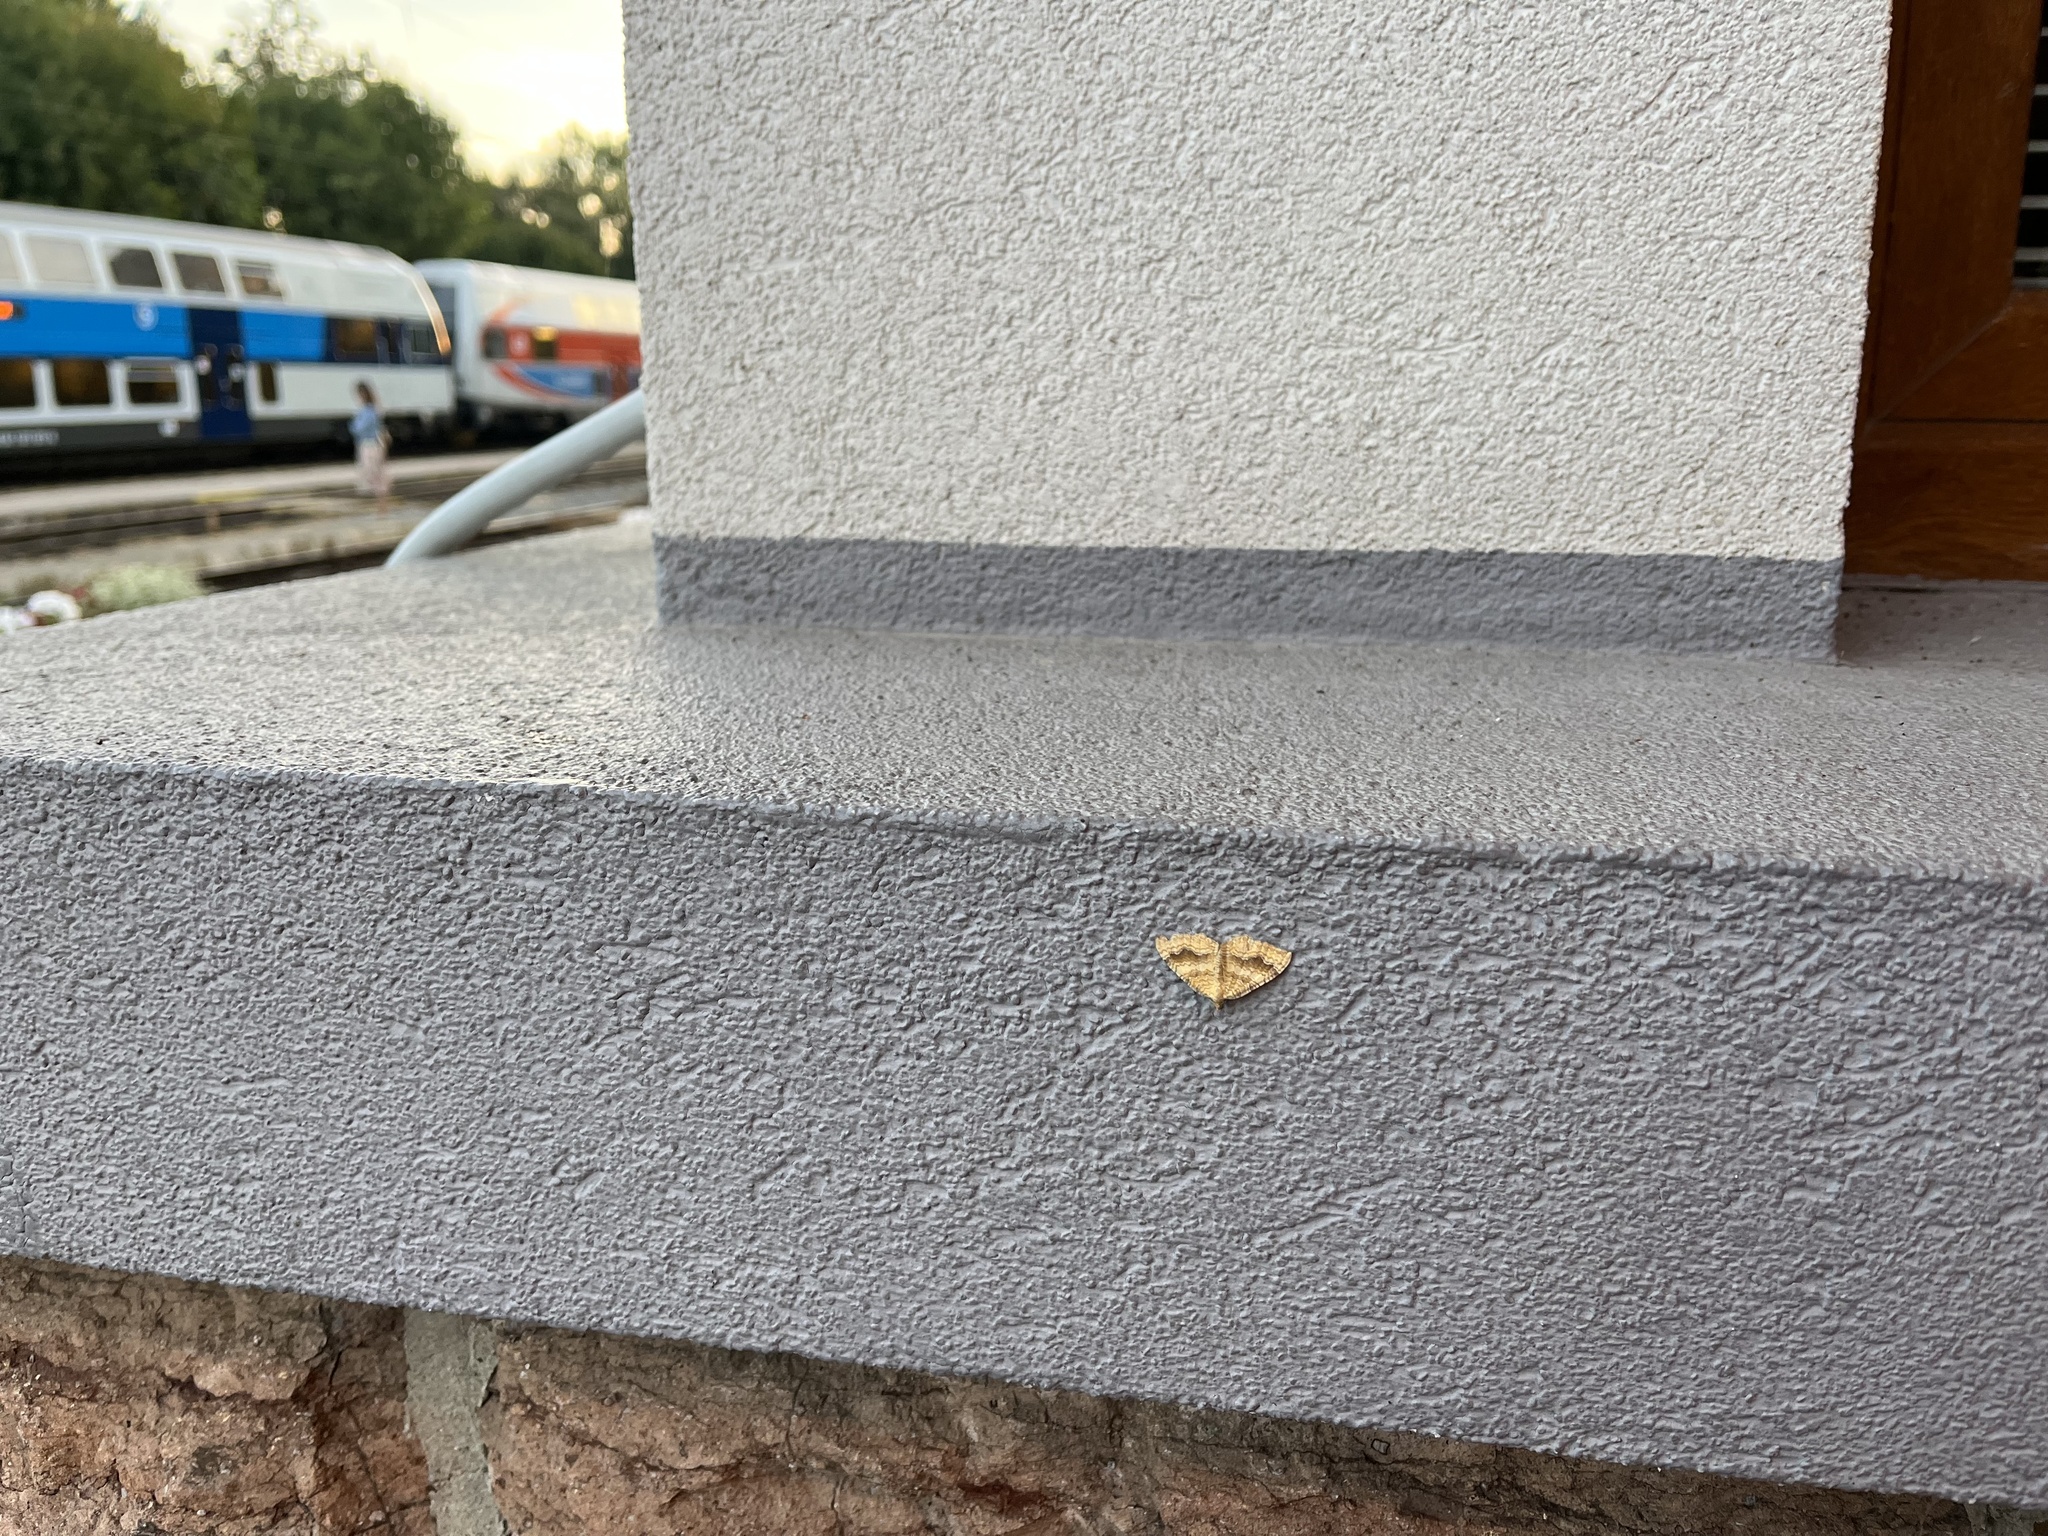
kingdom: Animalia
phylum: Arthropoda
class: Insecta
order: Lepidoptera
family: Geometridae
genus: Camptogramma
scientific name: Camptogramma bilineata
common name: Yellow shell
